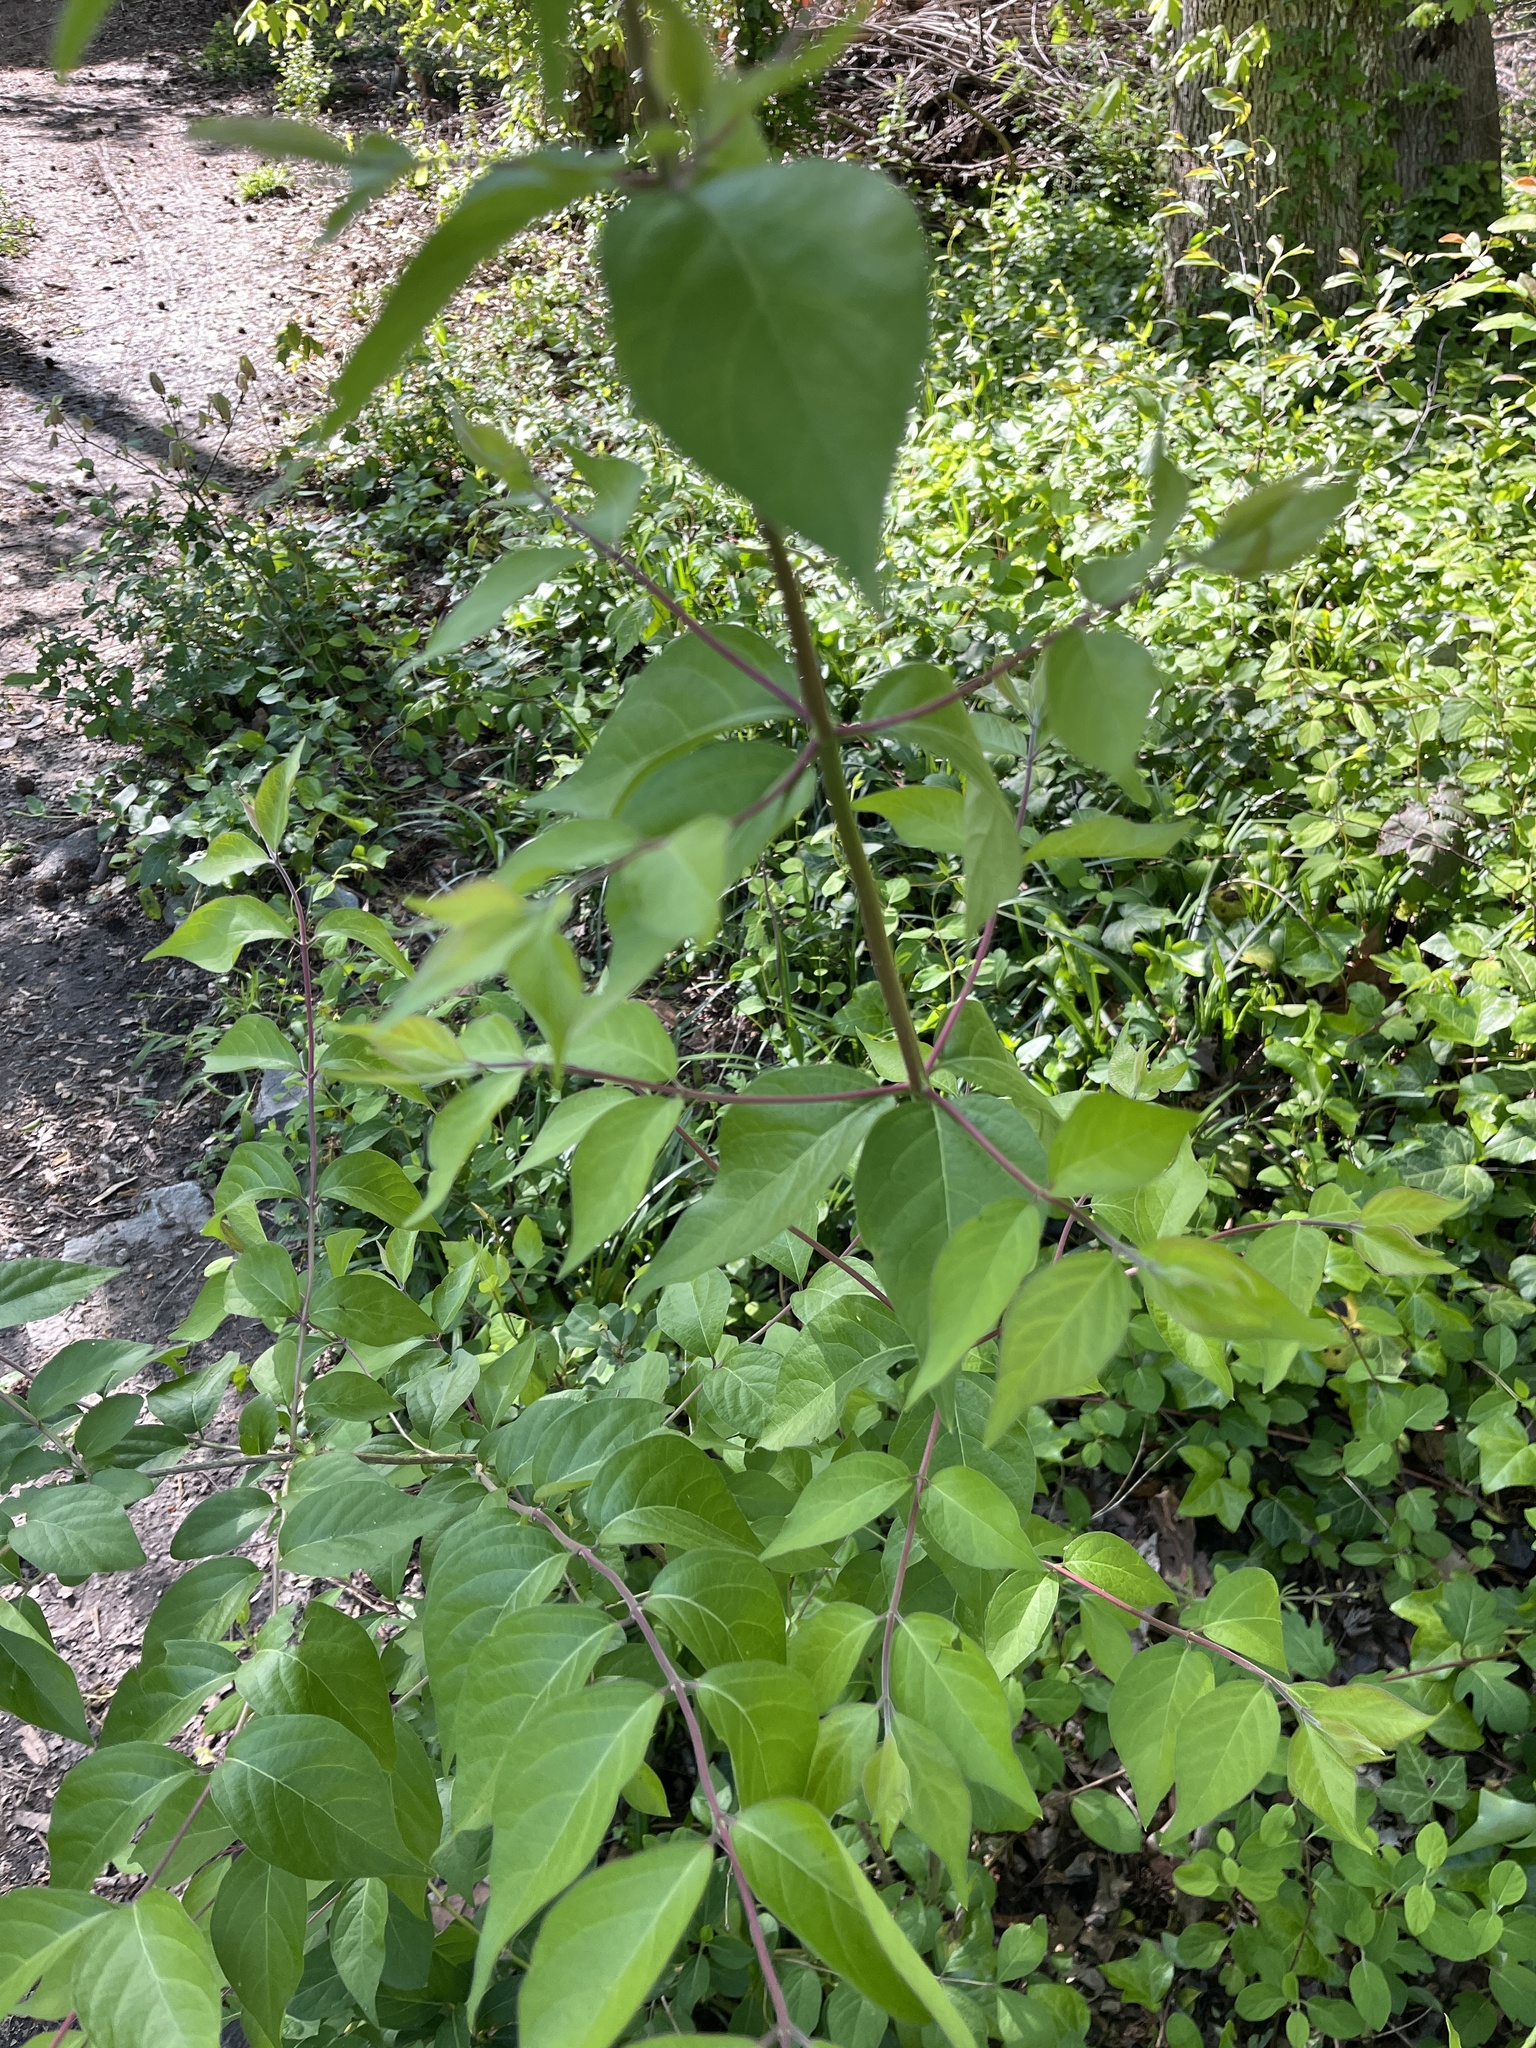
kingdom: Plantae
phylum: Tracheophyta
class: Magnoliopsida
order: Dipsacales
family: Caprifoliaceae
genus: Lonicera
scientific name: Lonicera maackii
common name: Amur honeysuckle
